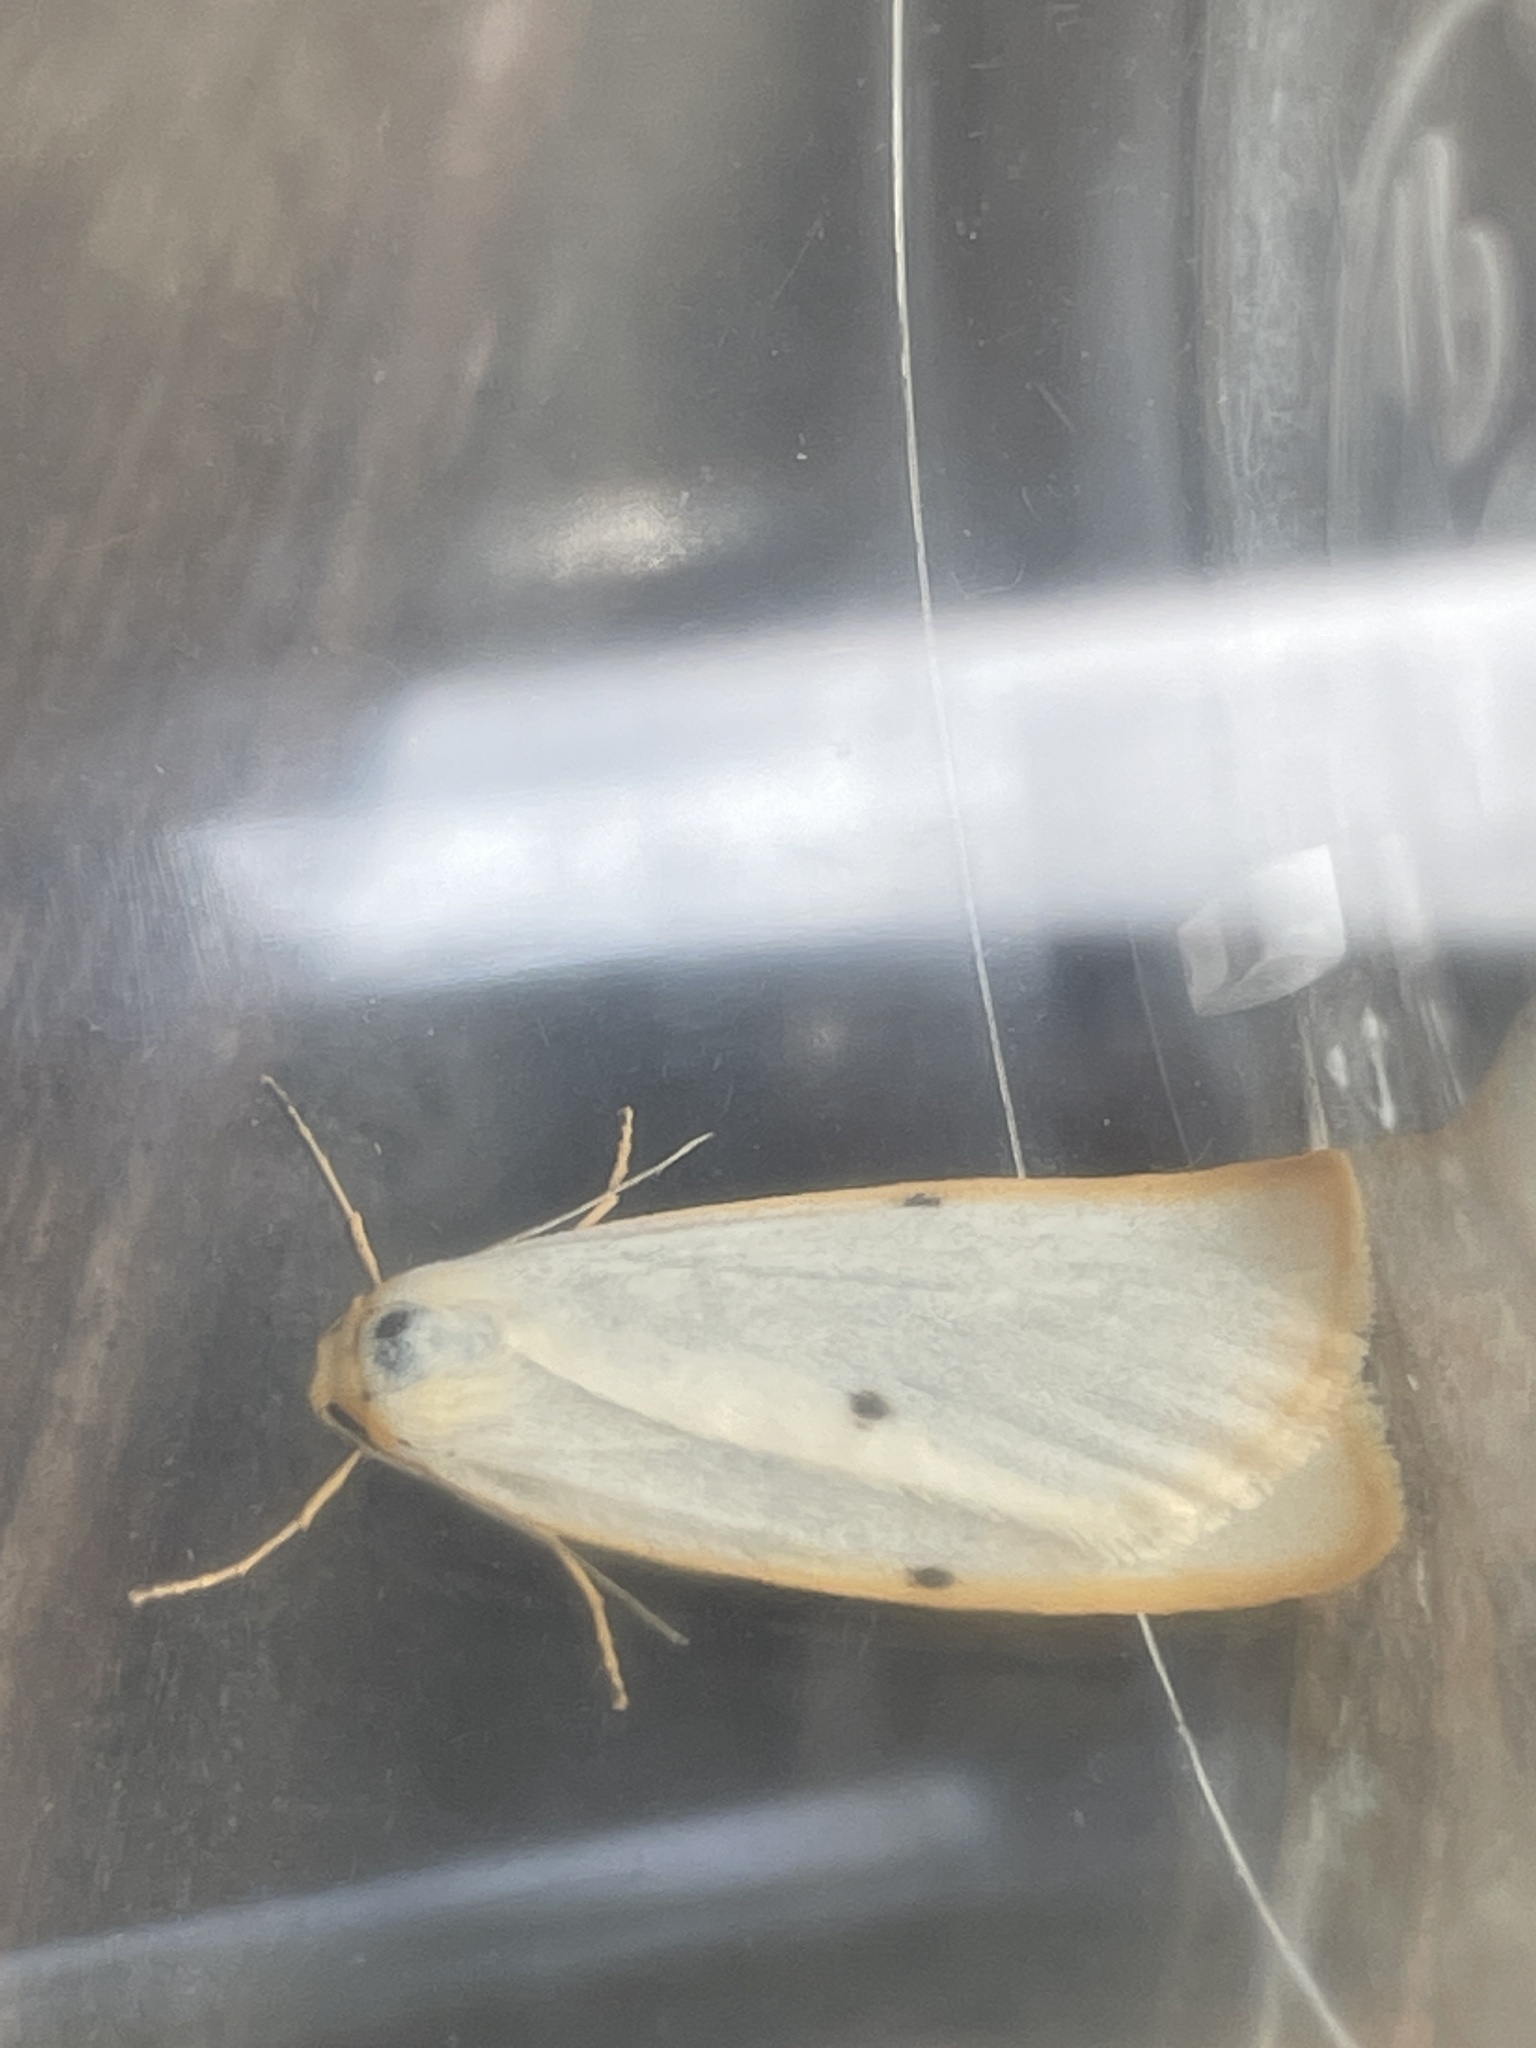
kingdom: Animalia
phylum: Arthropoda
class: Insecta
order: Lepidoptera
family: Erebidae
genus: Cybosia
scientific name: Cybosia mesomella
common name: Four-dotted footman
